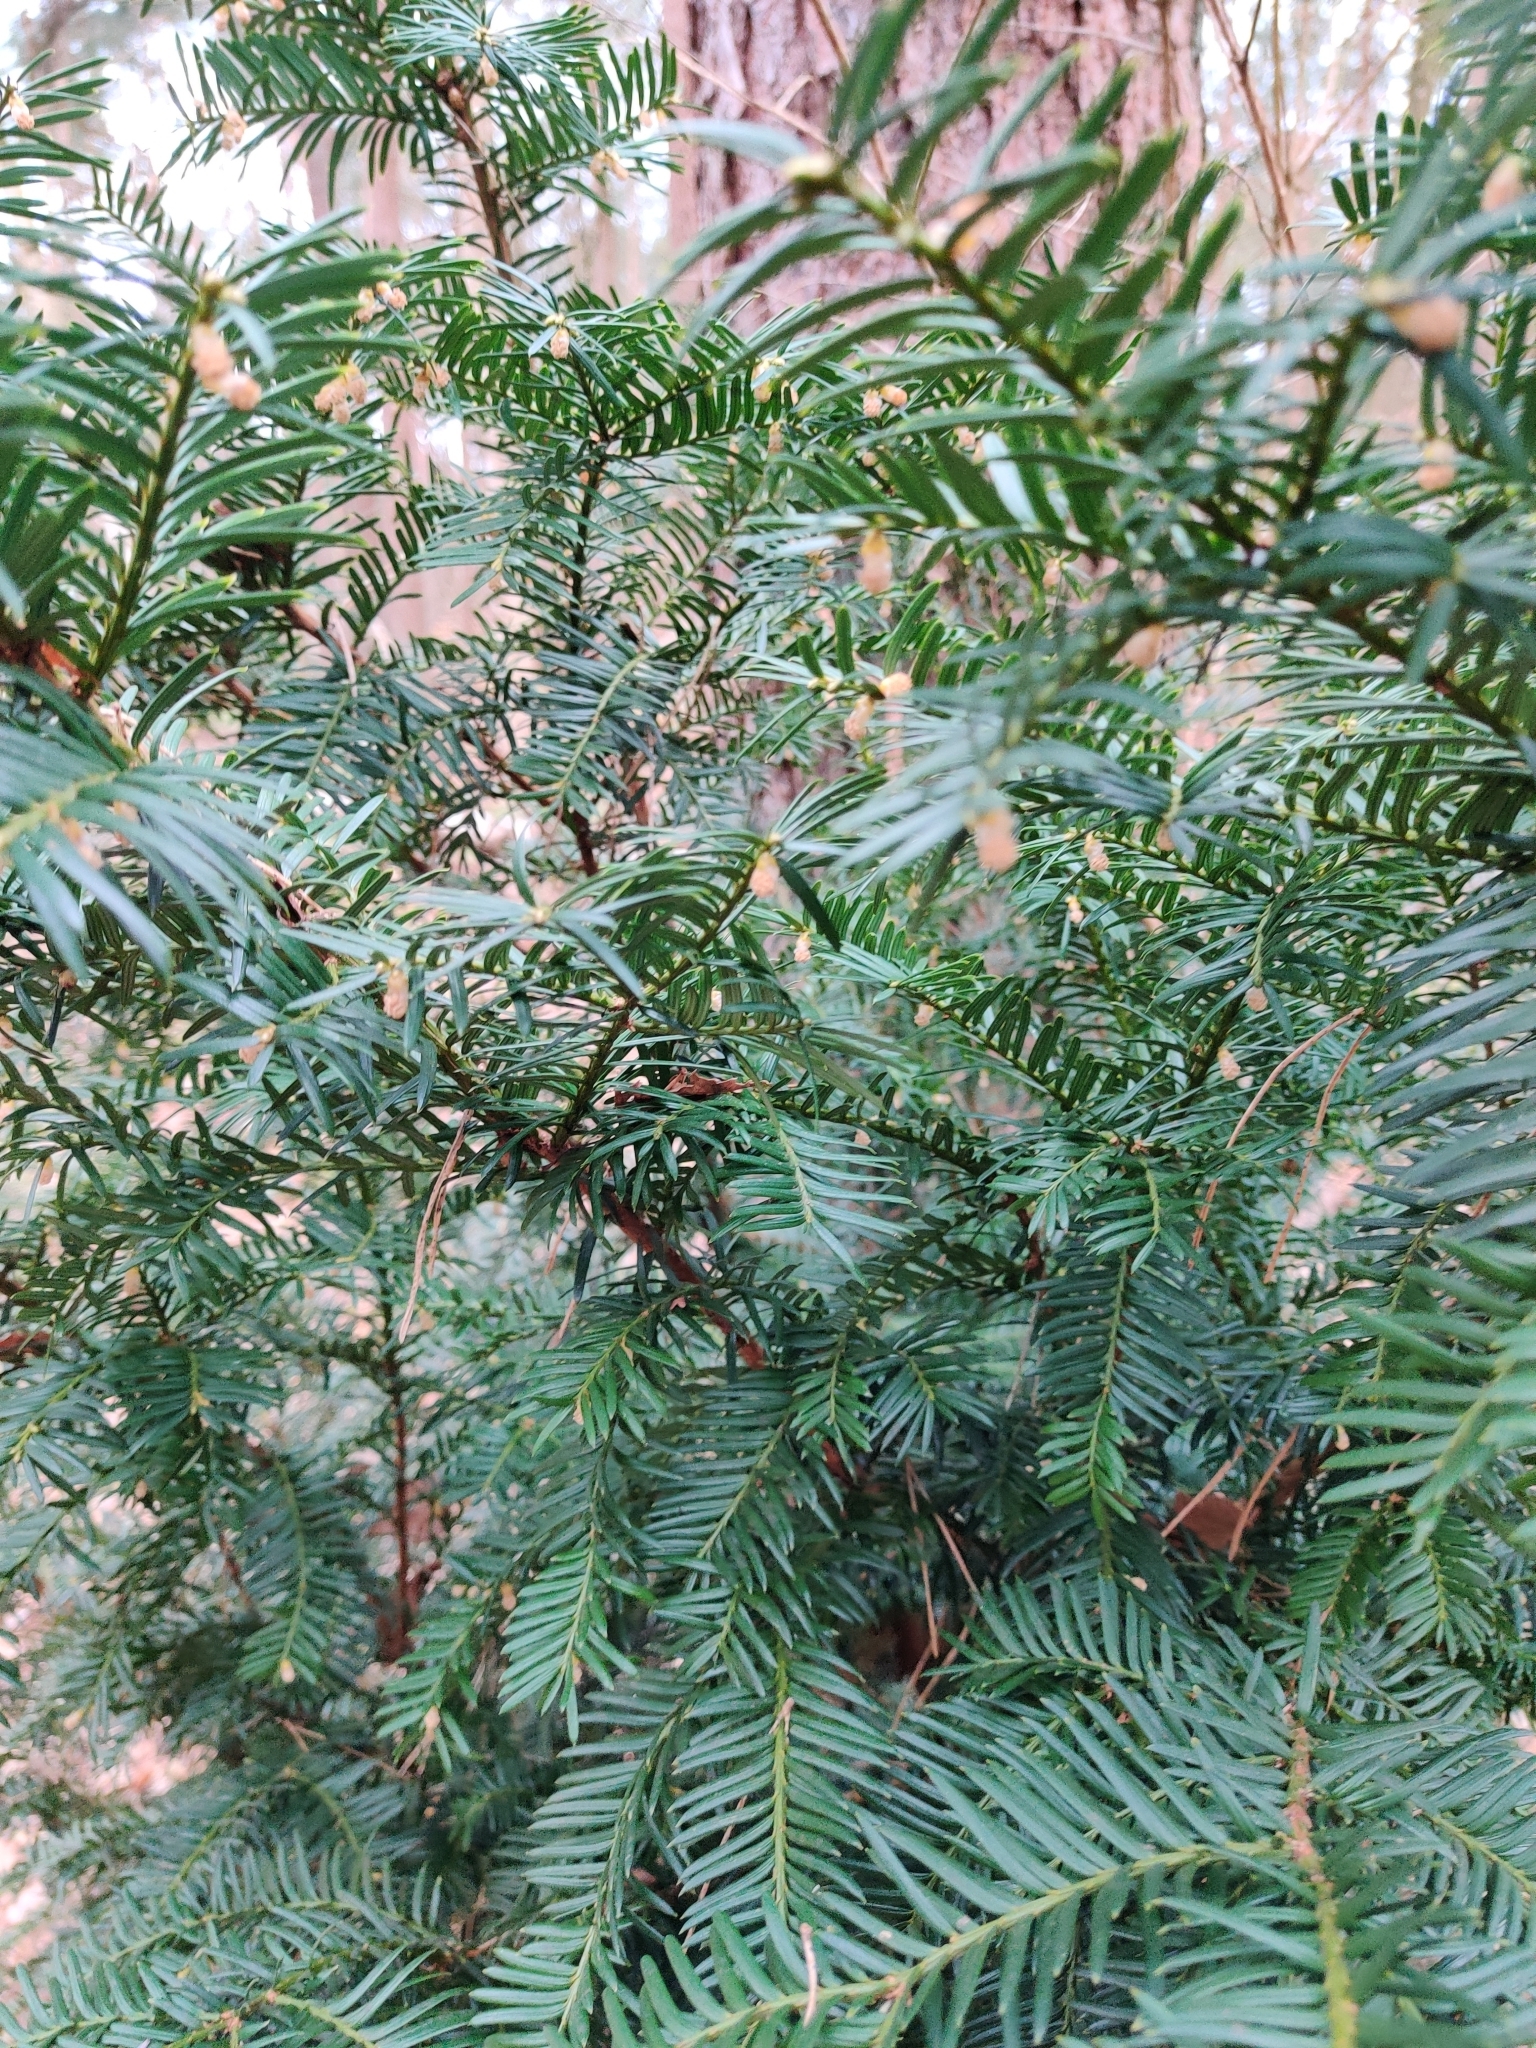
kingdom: Plantae
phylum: Tracheophyta
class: Pinopsida
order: Pinales
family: Taxaceae
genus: Taxus
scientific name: Taxus baccata
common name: Yew
